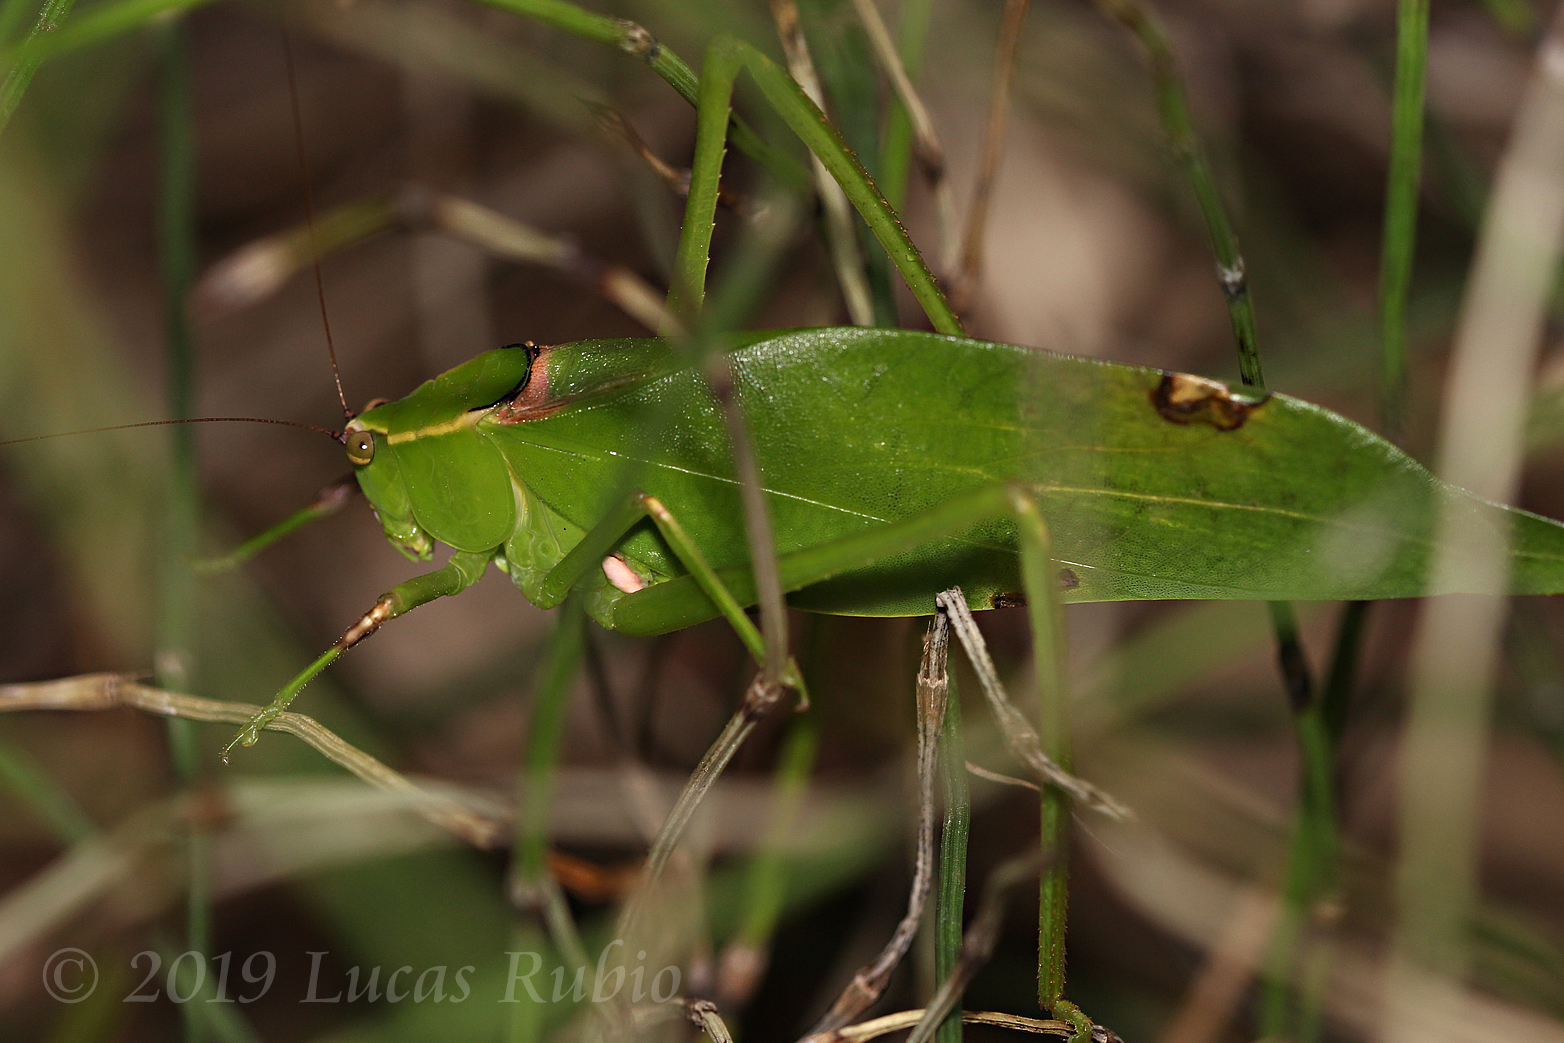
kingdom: Animalia
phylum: Arthropoda
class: Insecta
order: Orthoptera
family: Tettigoniidae
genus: Stilpnochlora
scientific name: Stilpnochlora nanna
